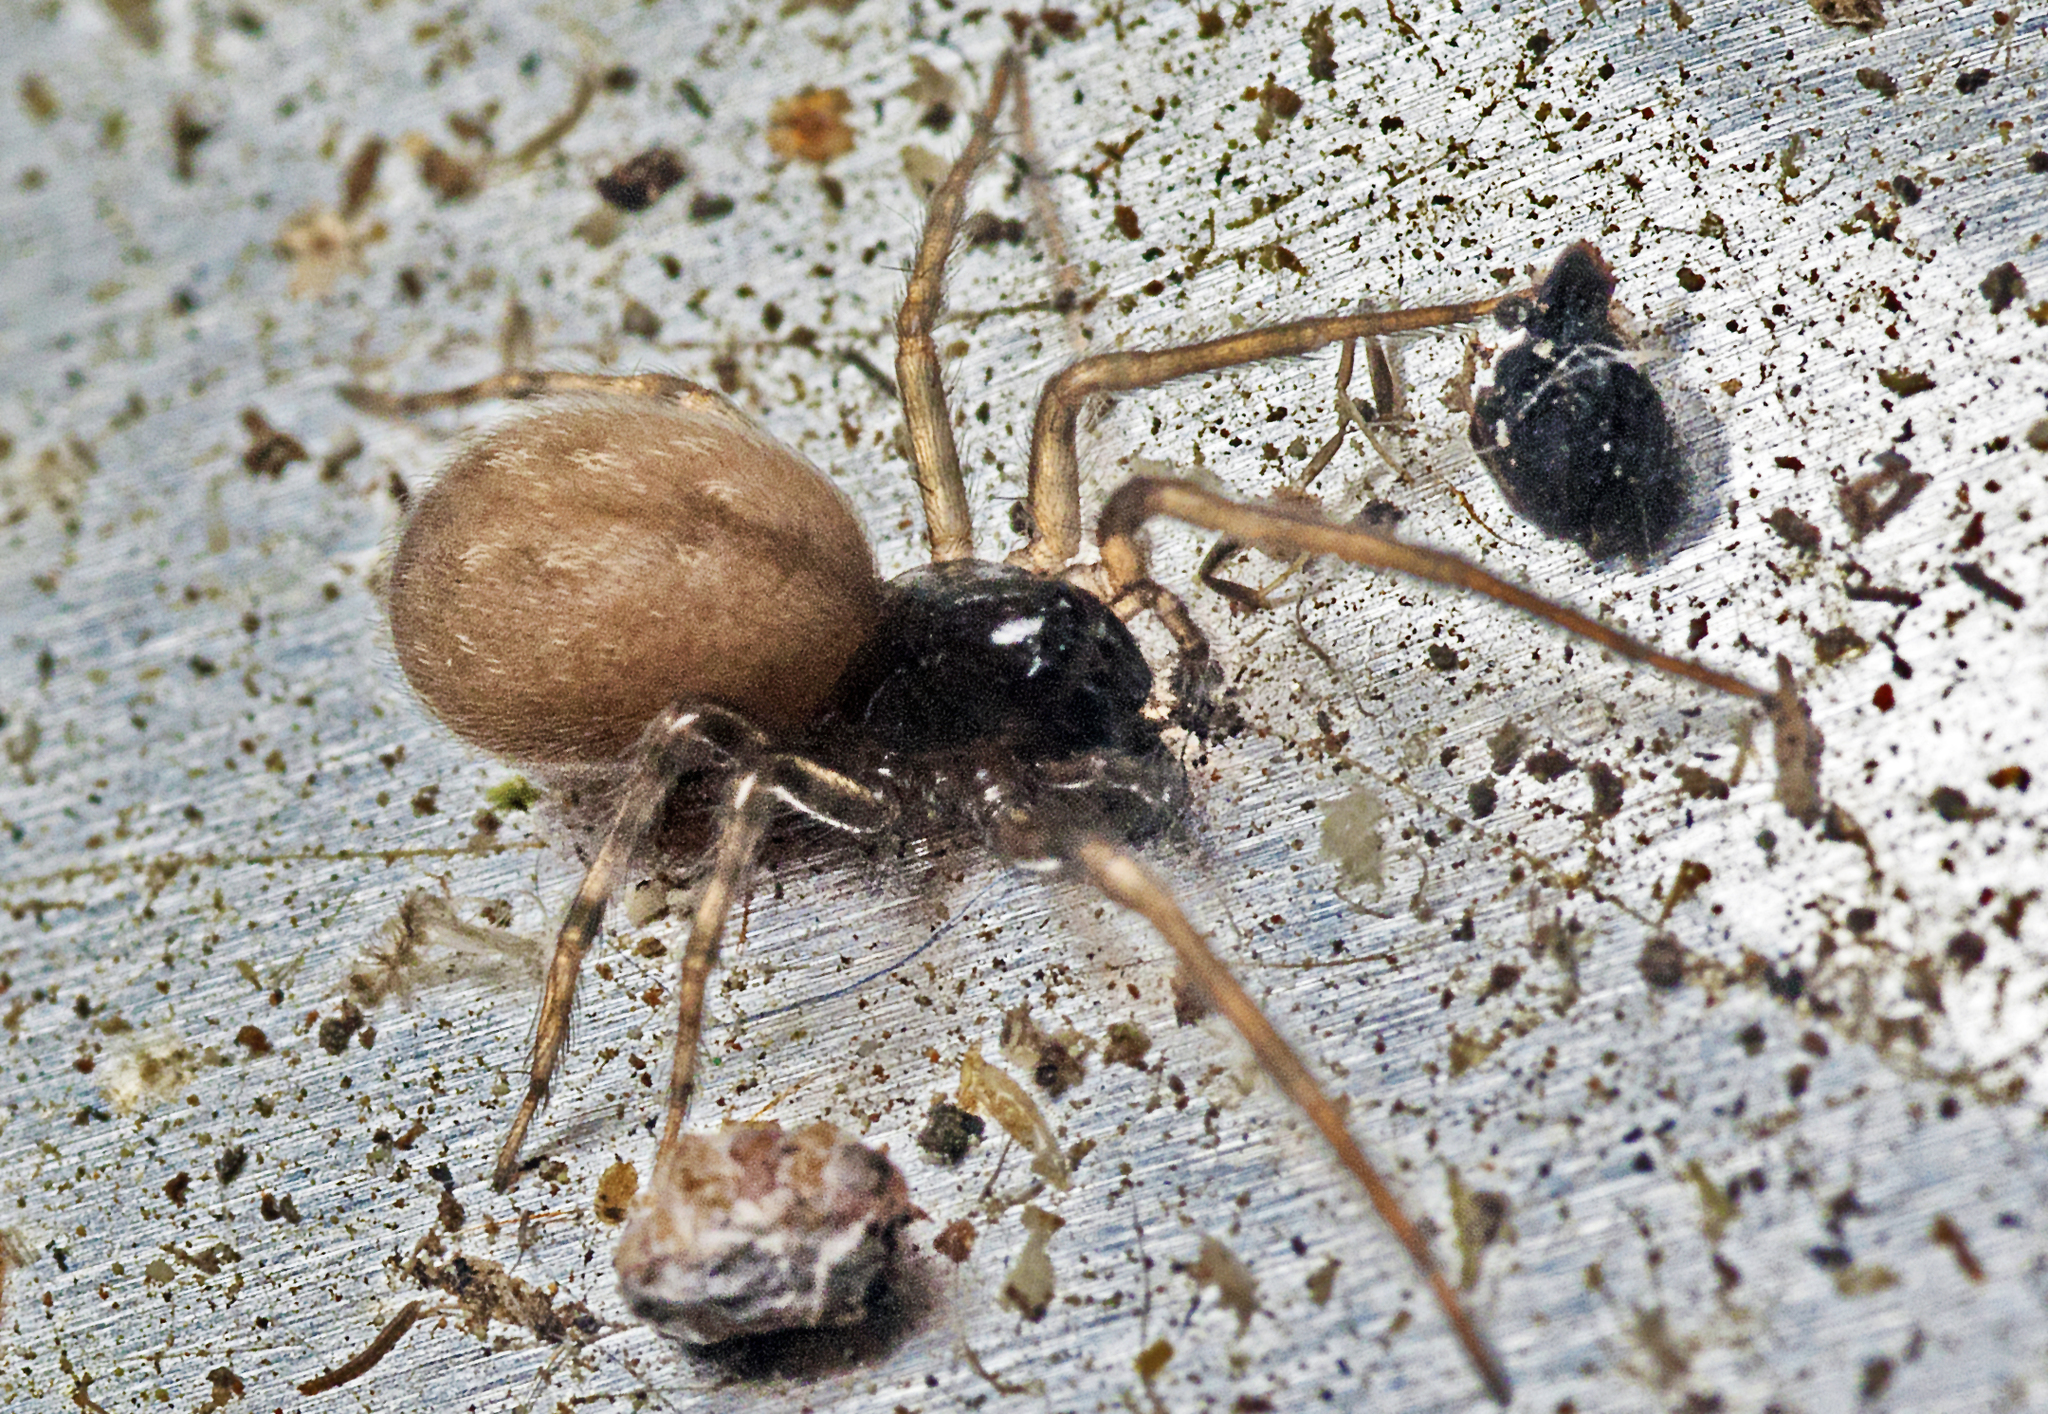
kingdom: Animalia
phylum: Arthropoda
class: Arachnida
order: Araneae
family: Desidae
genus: Badumna
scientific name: Badumna longinqua
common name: Gray house spider
